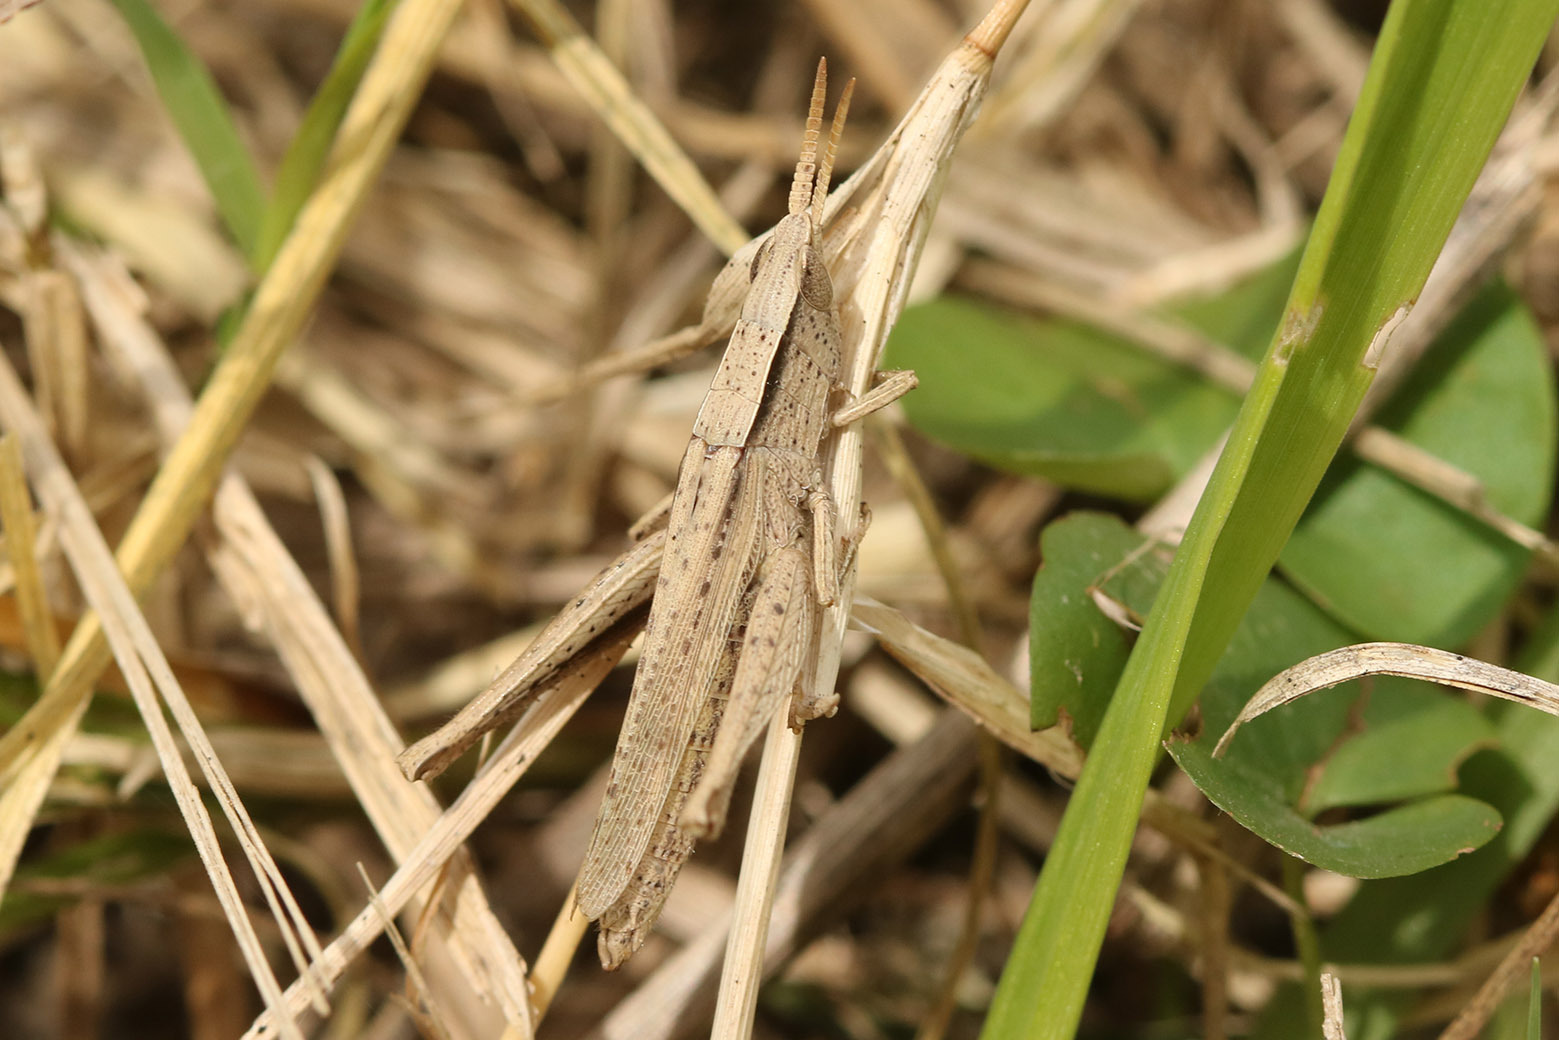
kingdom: Animalia
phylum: Arthropoda
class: Insecta
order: Orthoptera
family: Acrididae
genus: Laplatacris
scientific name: Laplatacris dispar
